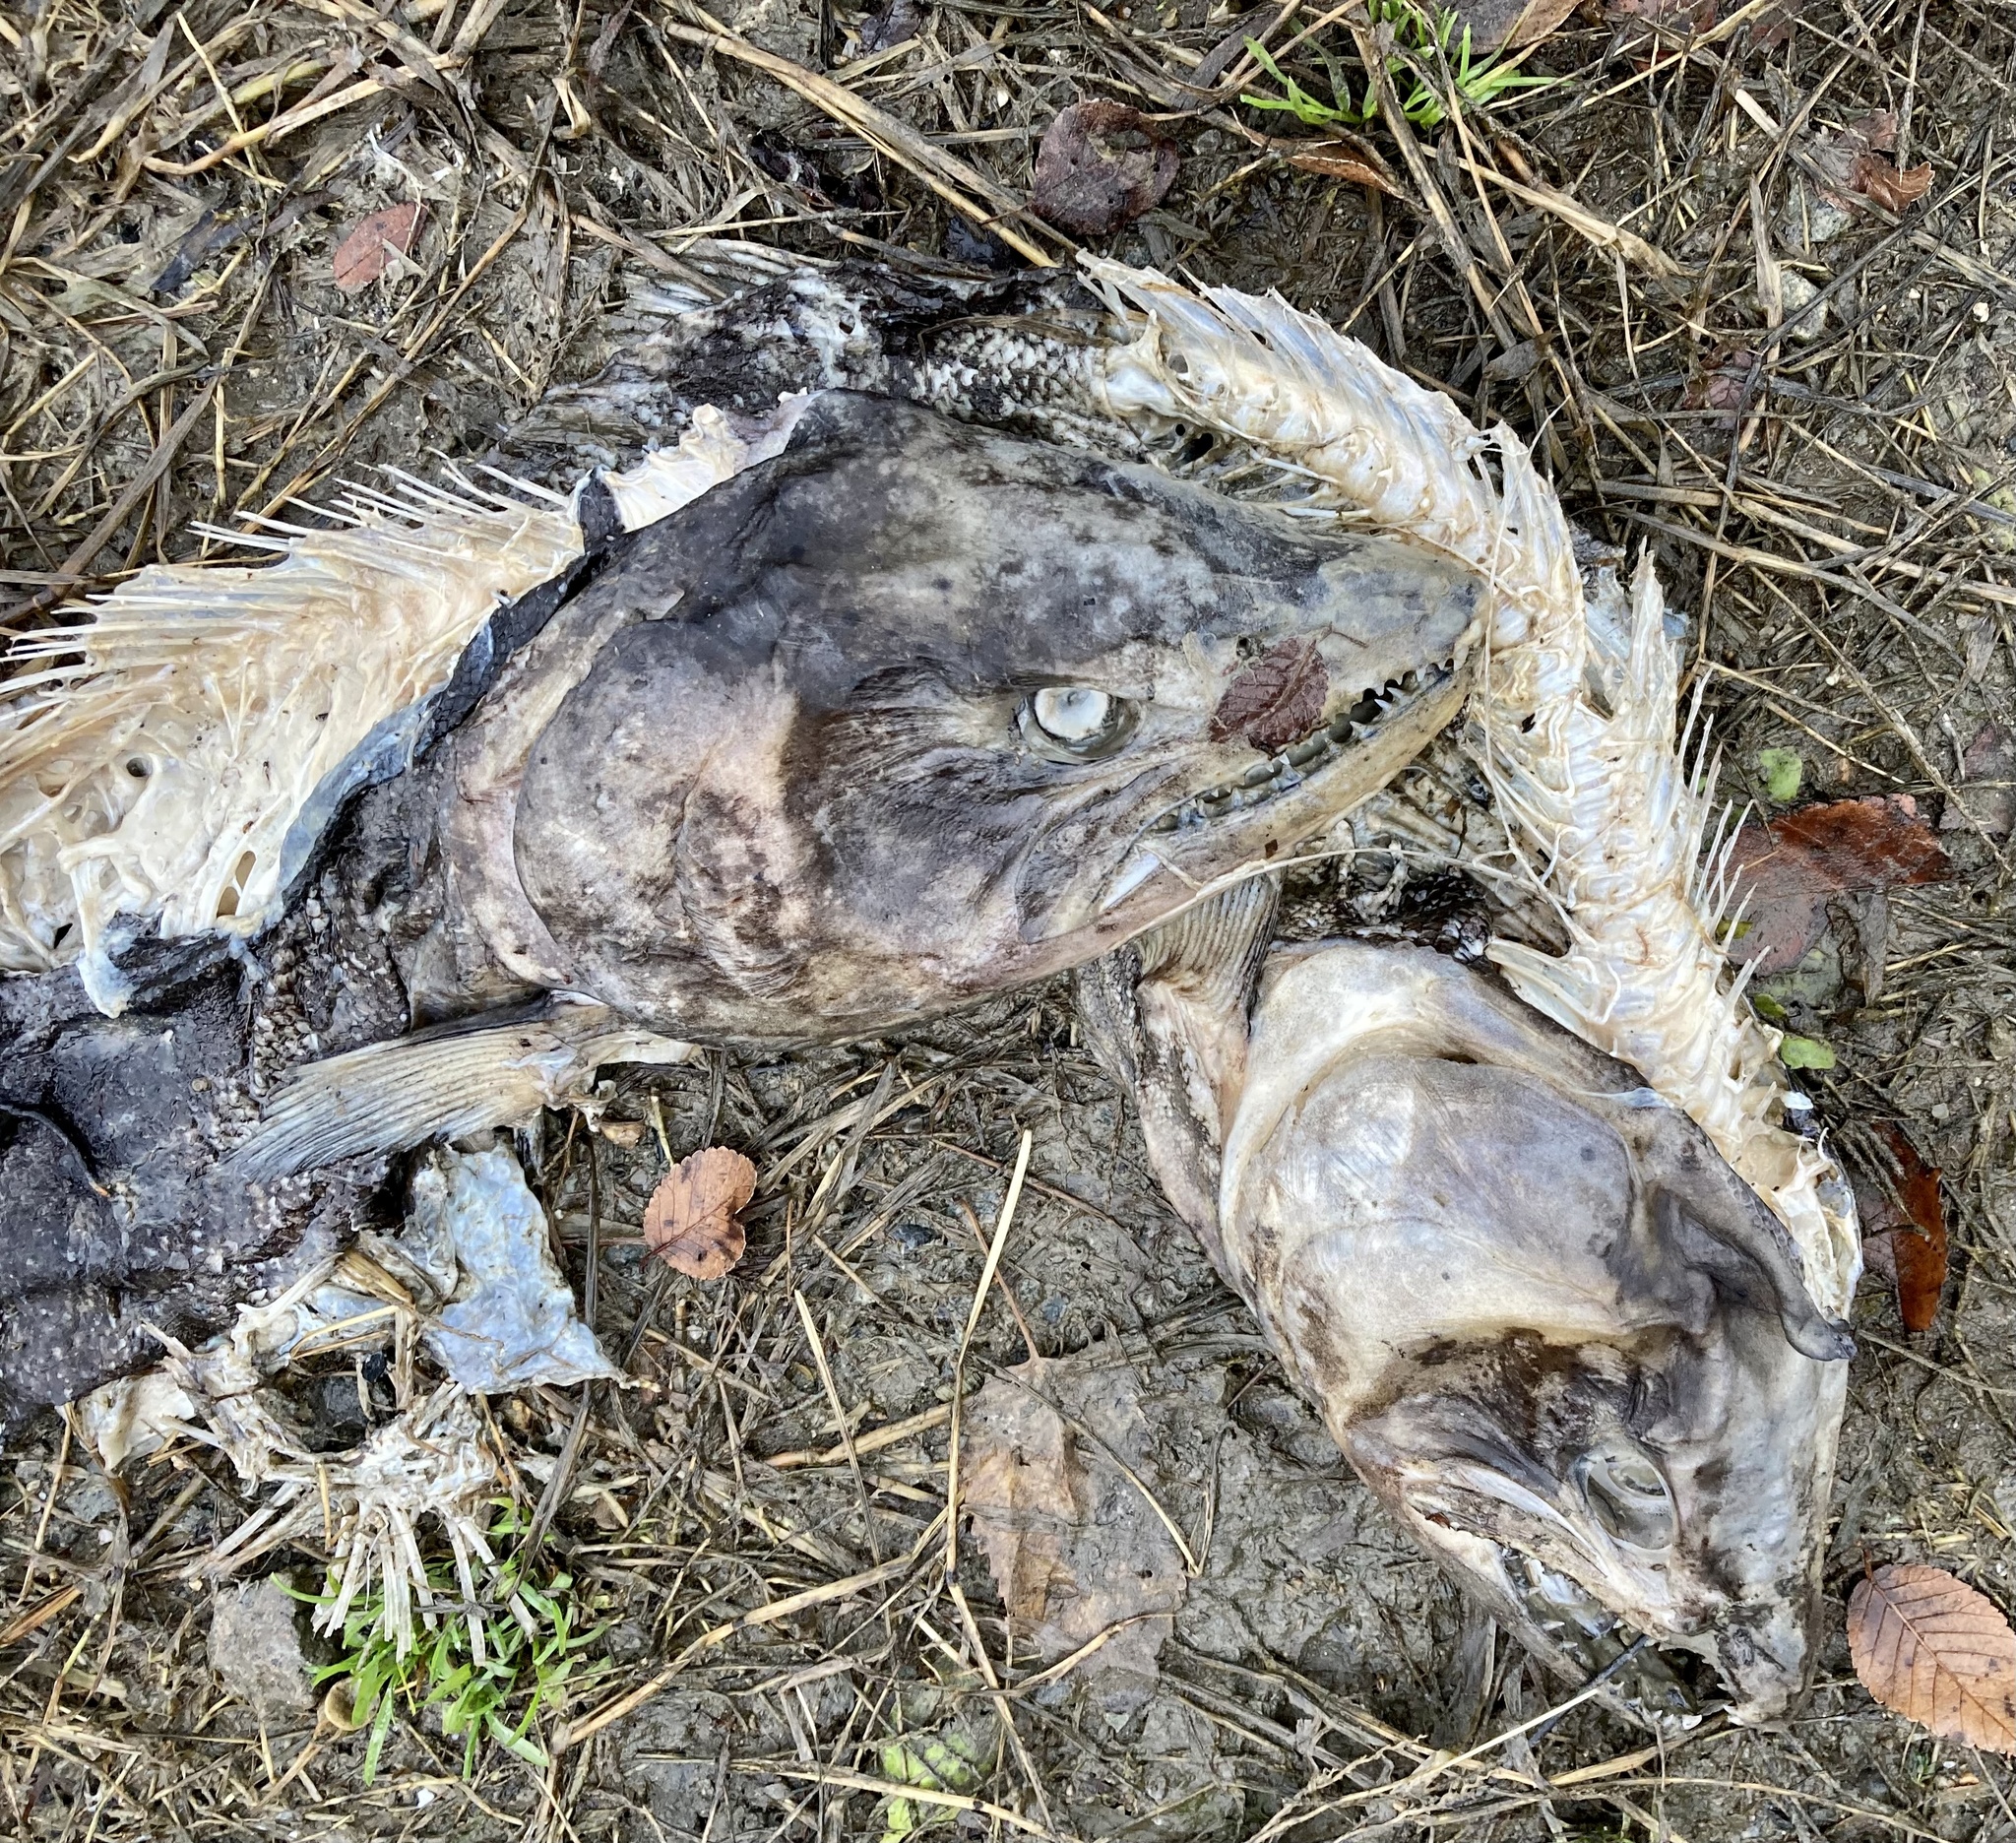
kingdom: Animalia
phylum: Chordata
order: Salmoniformes
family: Salmonidae
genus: Oncorhynchus
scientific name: Oncorhynchus nerka
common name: Sockeye salmon
